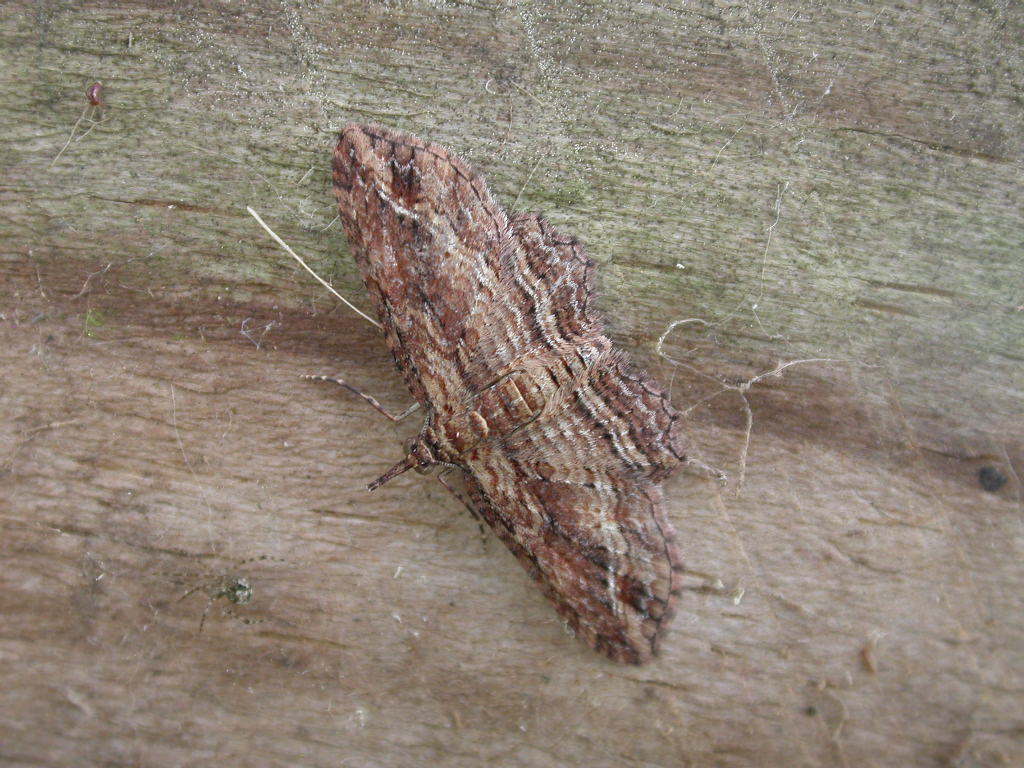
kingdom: Animalia
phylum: Arthropoda
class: Insecta
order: Lepidoptera
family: Geometridae
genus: Chloroclystis
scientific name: Chloroclystis filata
